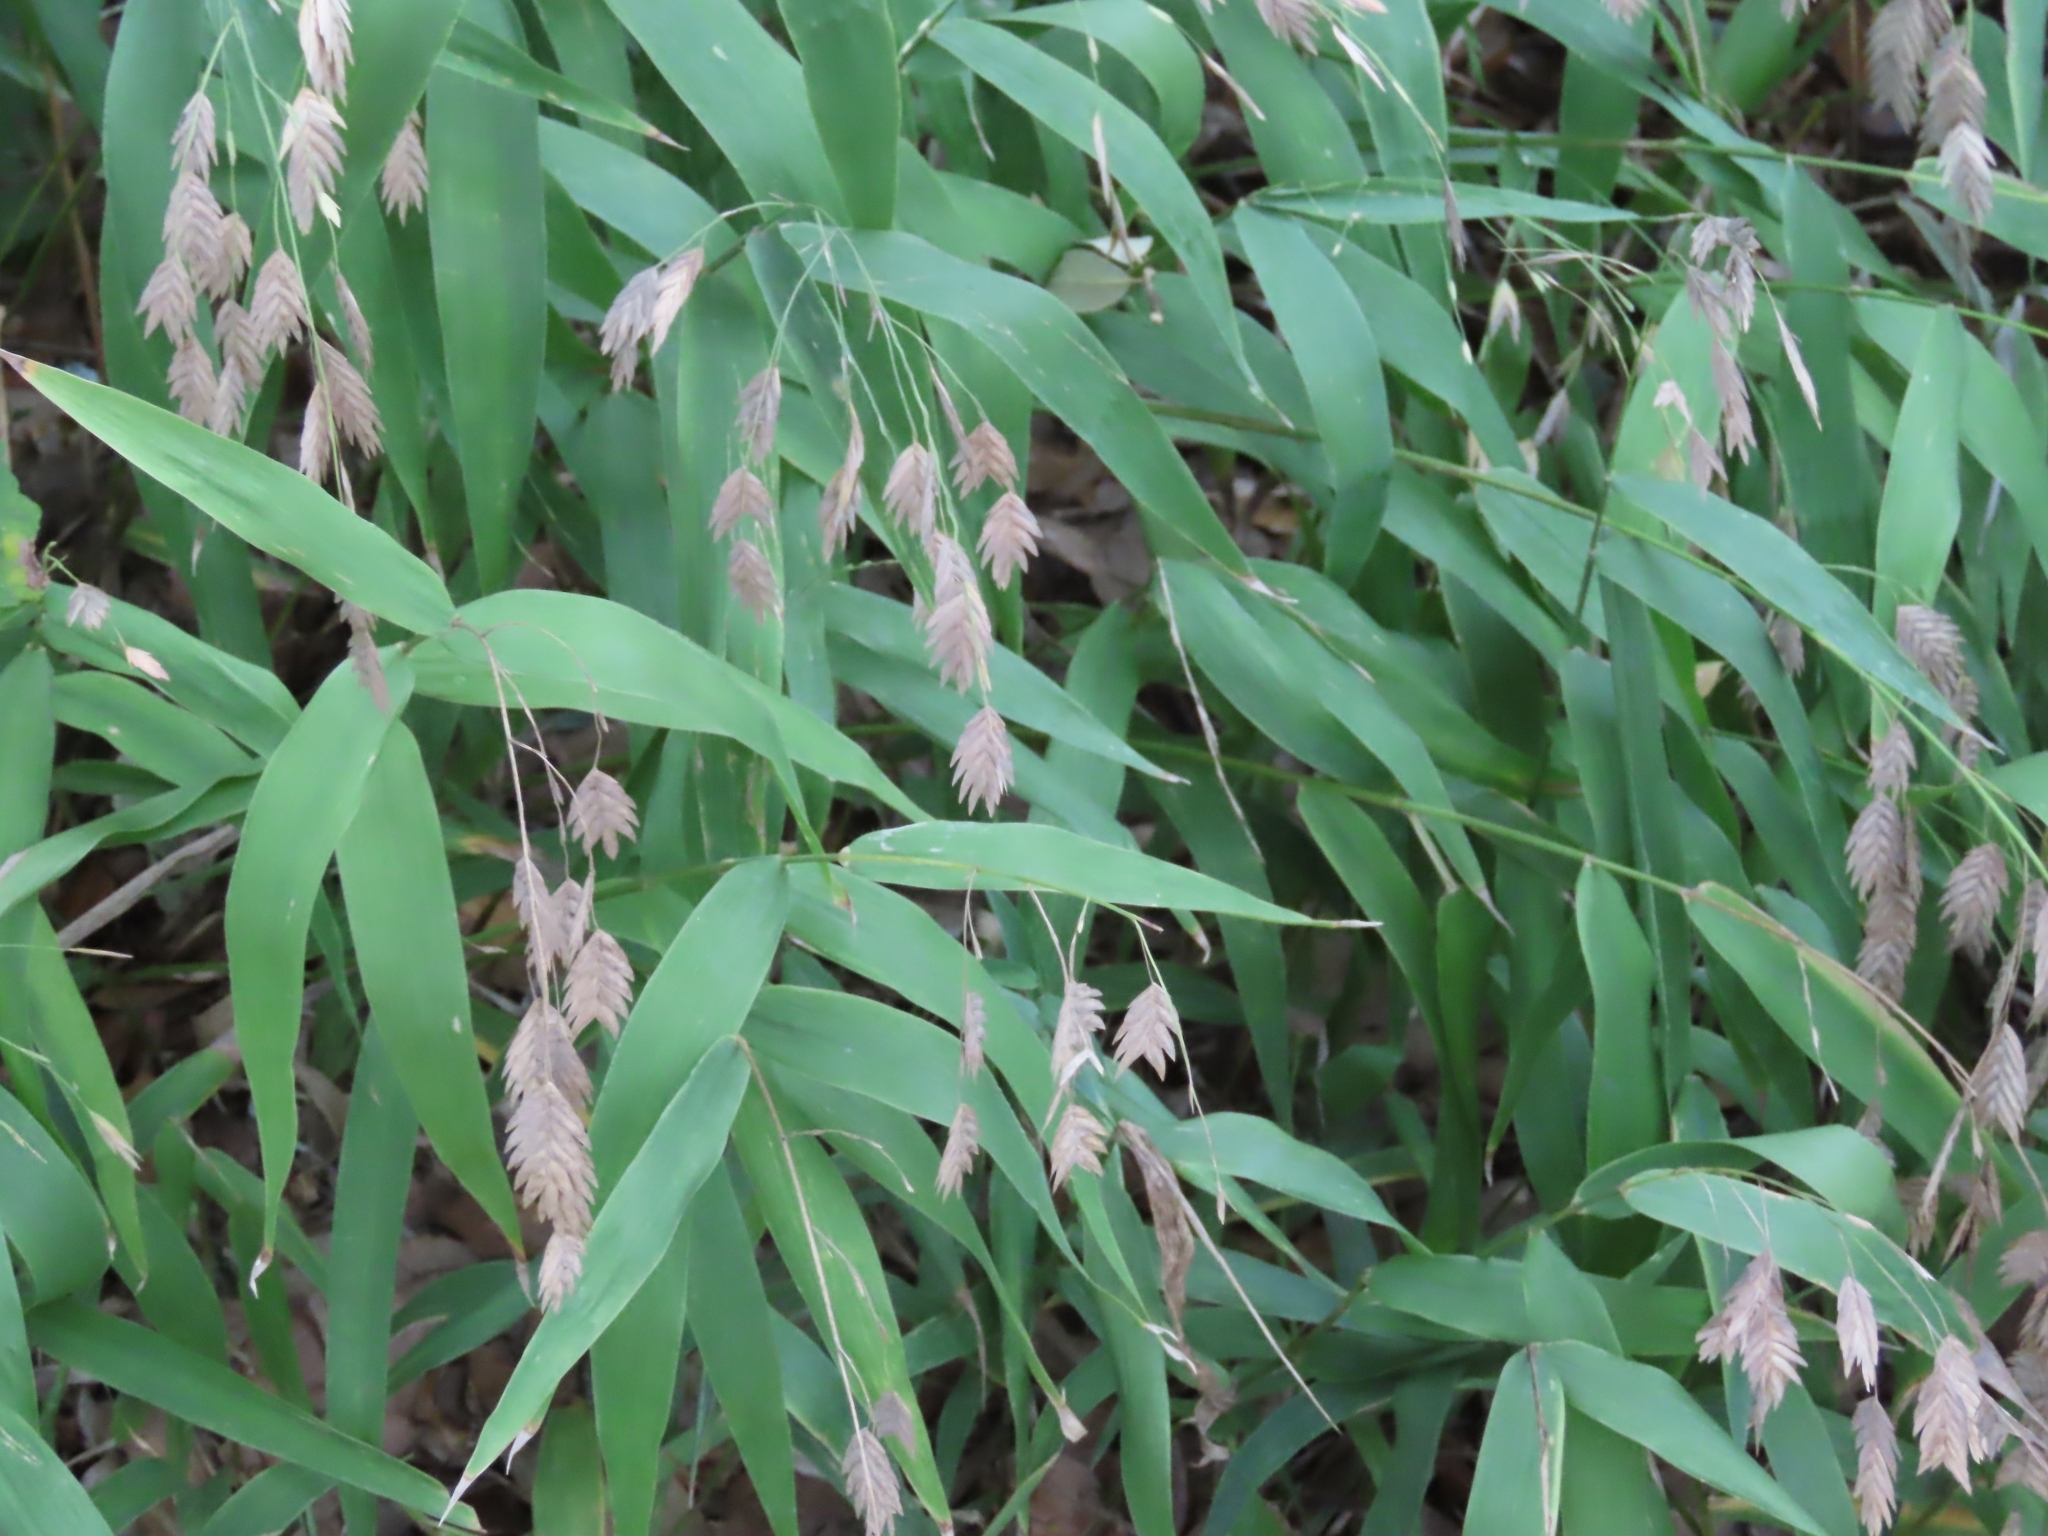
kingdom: Plantae
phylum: Tracheophyta
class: Liliopsida
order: Poales
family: Poaceae
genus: Chasmanthium
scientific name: Chasmanthium latifolium
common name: Broad-leaved chasmanthium
